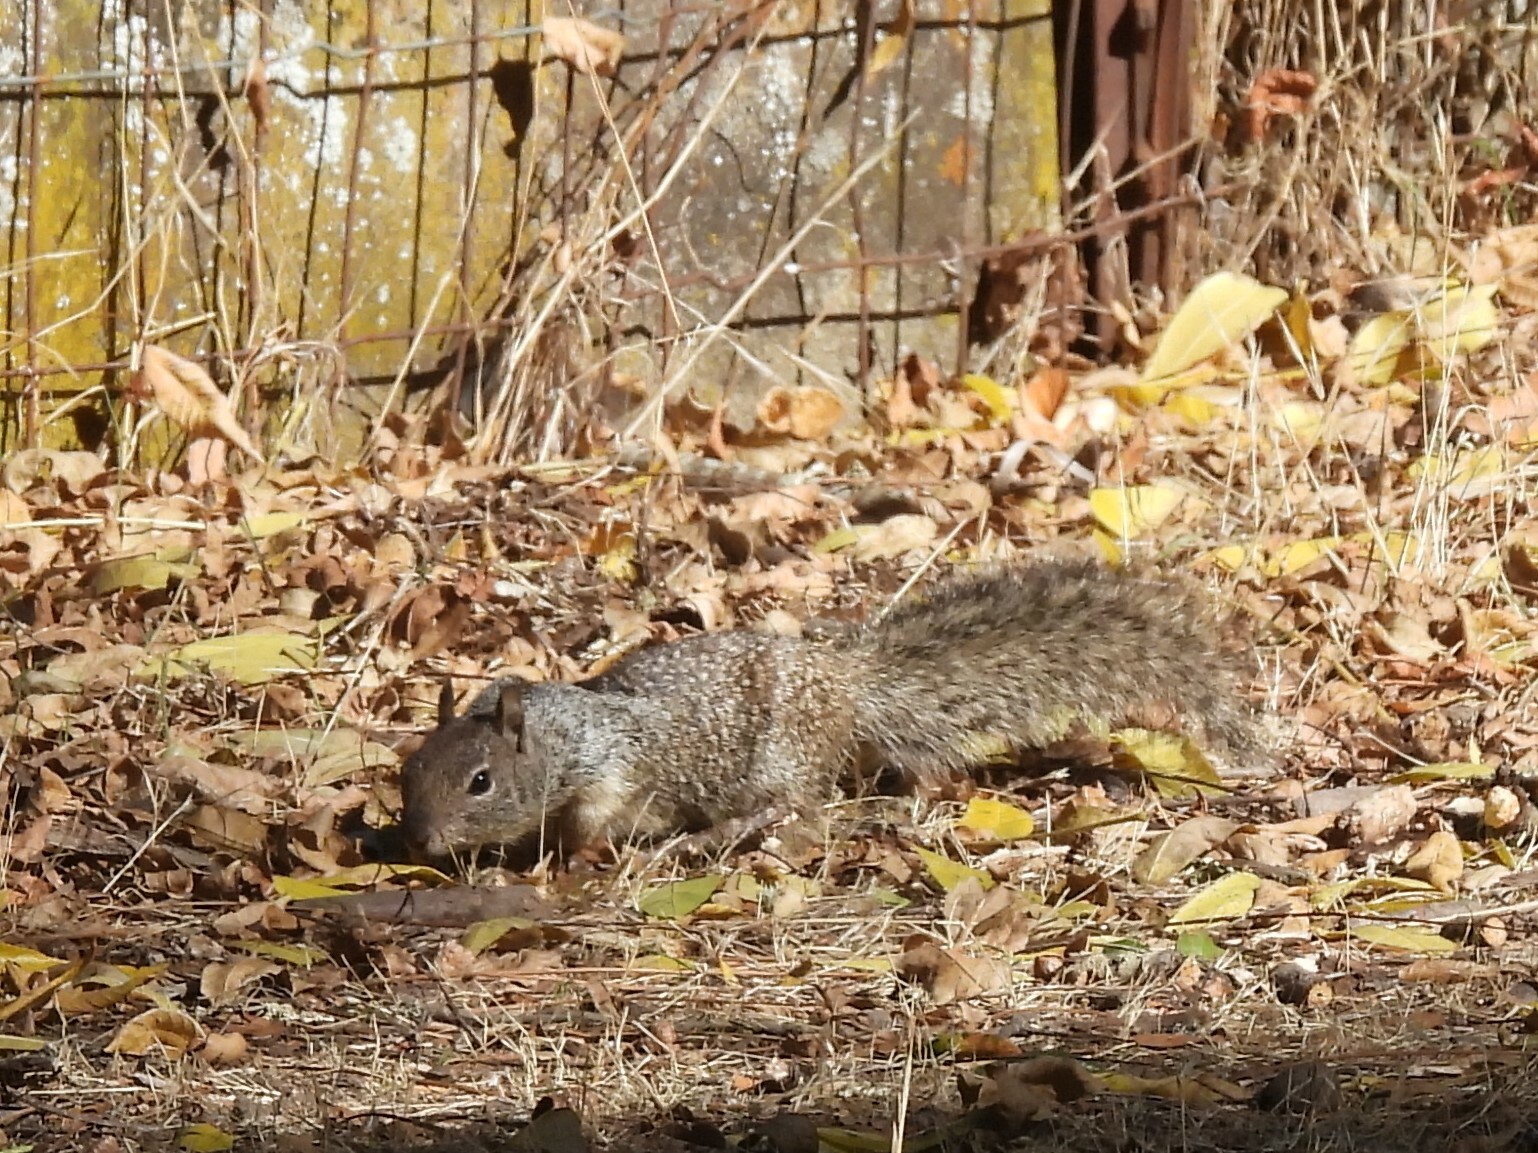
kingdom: Animalia
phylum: Chordata
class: Mammalia
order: Rodentia
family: Sciuridae
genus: Otospermophilus
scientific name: Otospermophilus beecheyi
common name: California ground squirrel
